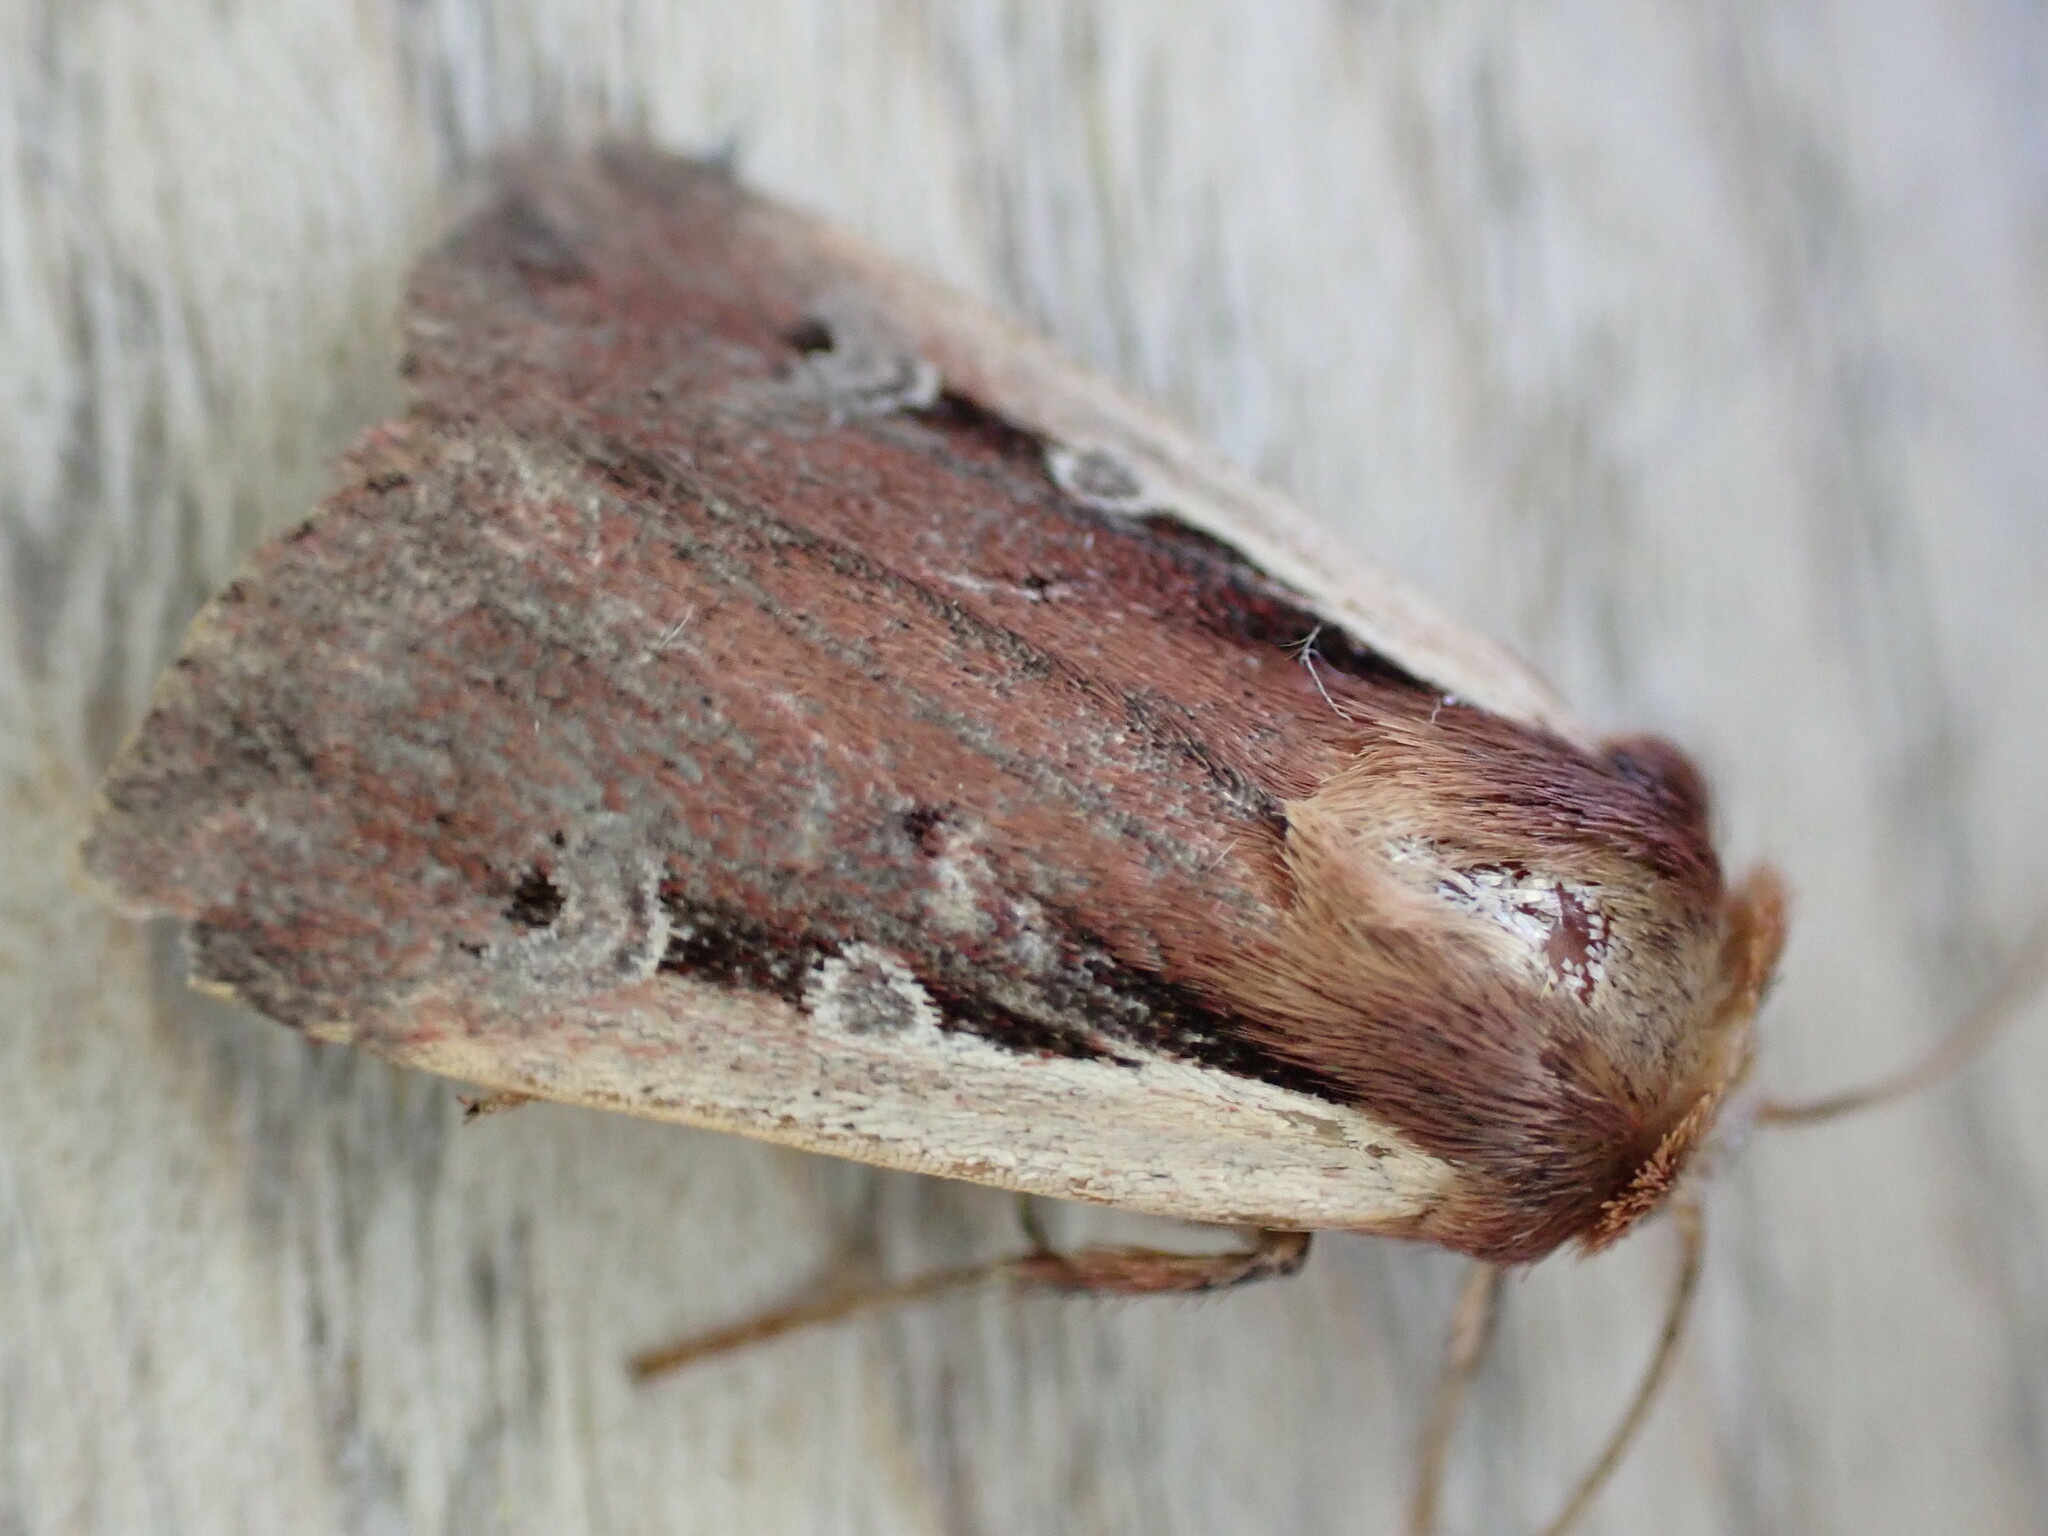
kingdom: Animalia
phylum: Arthropoda
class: Insecta
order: Lepidoptera
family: Noctuidae
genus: Ochropleura
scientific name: Ochropleura plecta
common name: Flame shoulder
